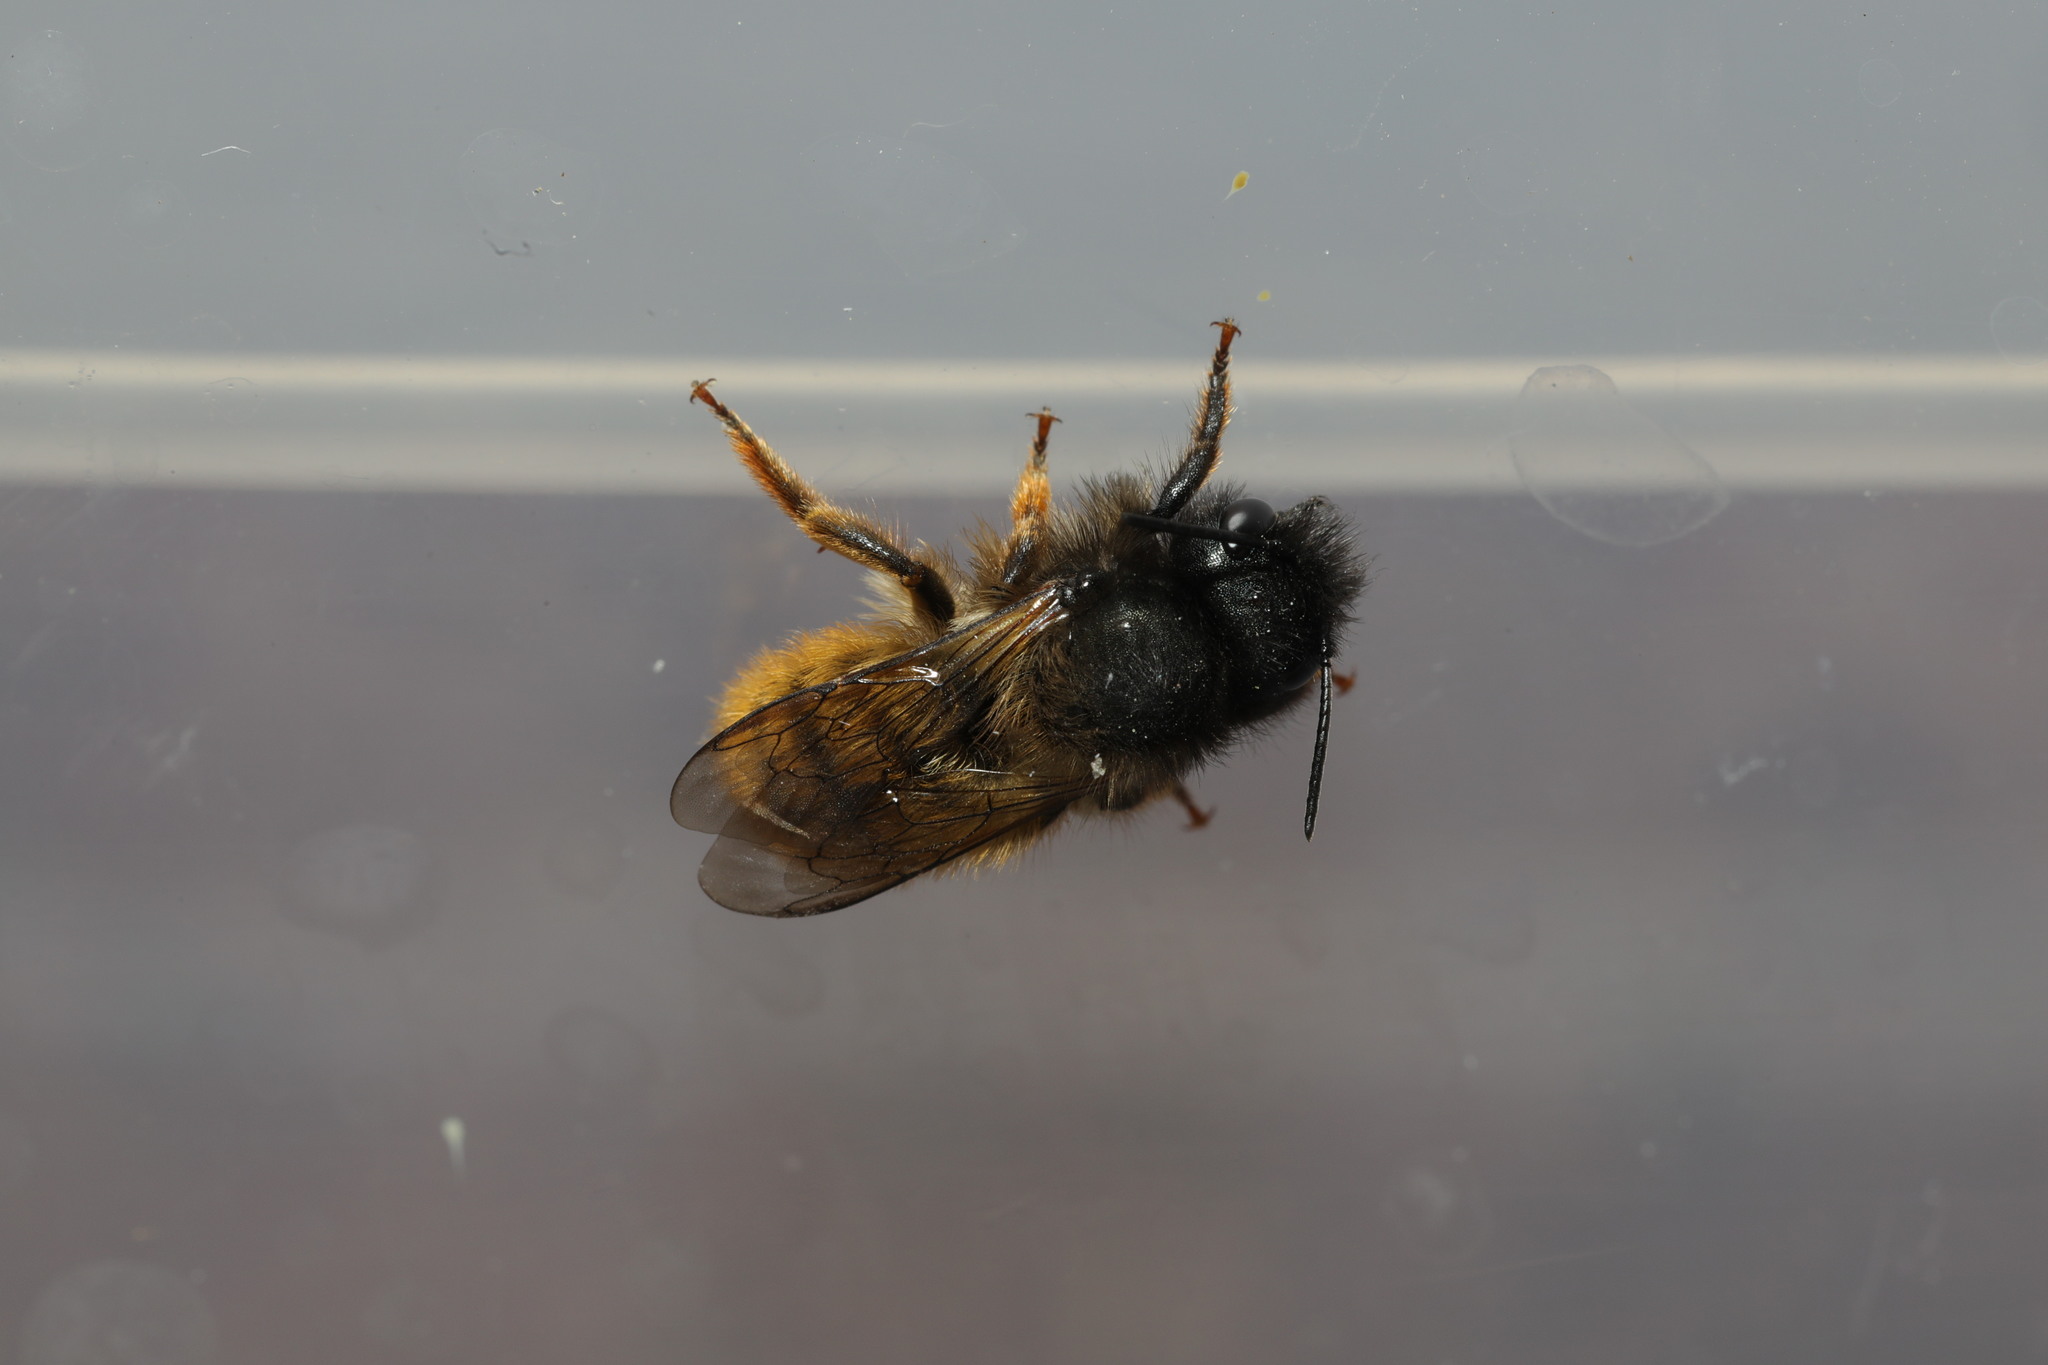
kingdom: Animalia
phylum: Arthropoda
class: Insecta
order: Hymenoptera
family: Megachilidae
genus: Osmia
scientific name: Osmia bicornis
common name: Red mason bee
